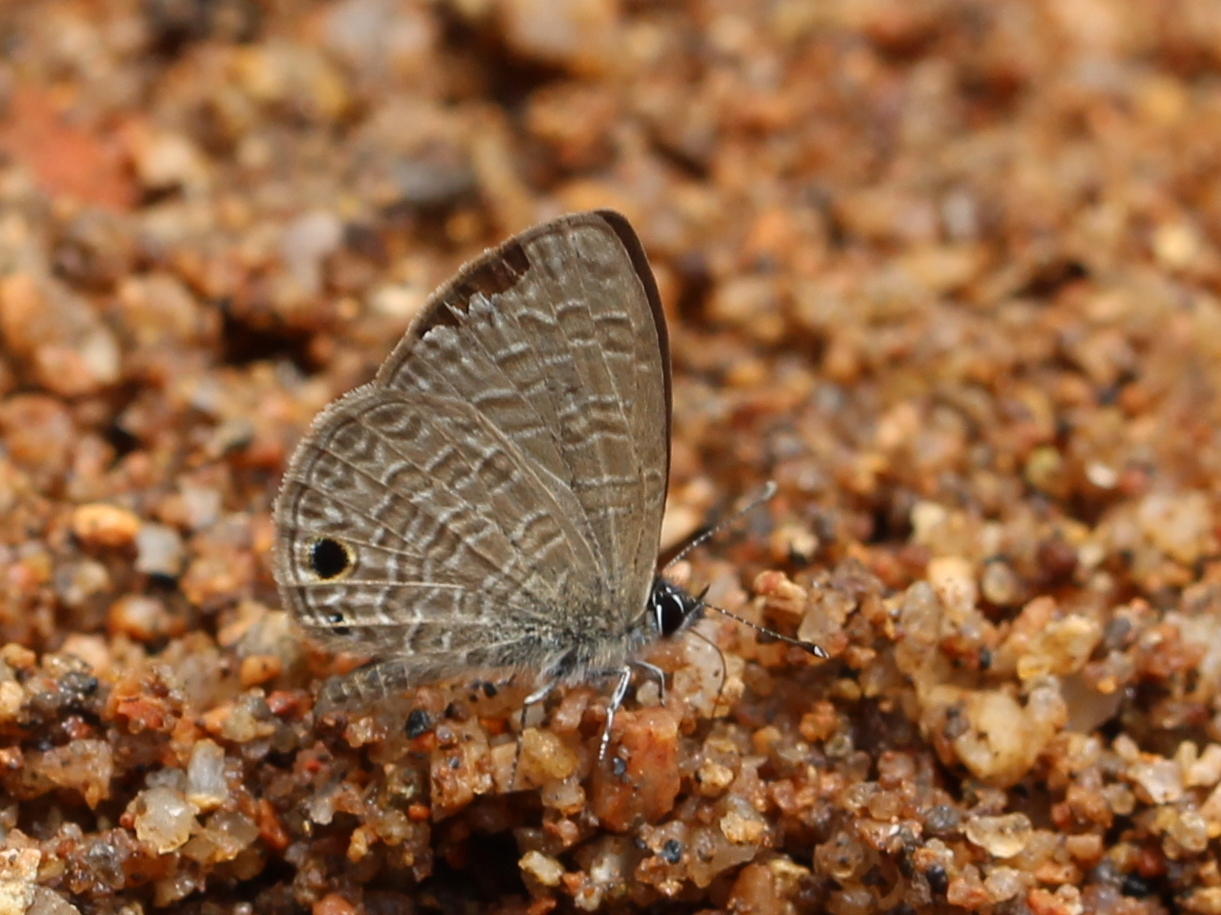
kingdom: Animalia
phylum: Arthropoda
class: Insecta
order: Lepidoptera
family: Lycaenidae
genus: Prosotas
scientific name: Prosotas dubiosa
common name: Tailless lineblue
